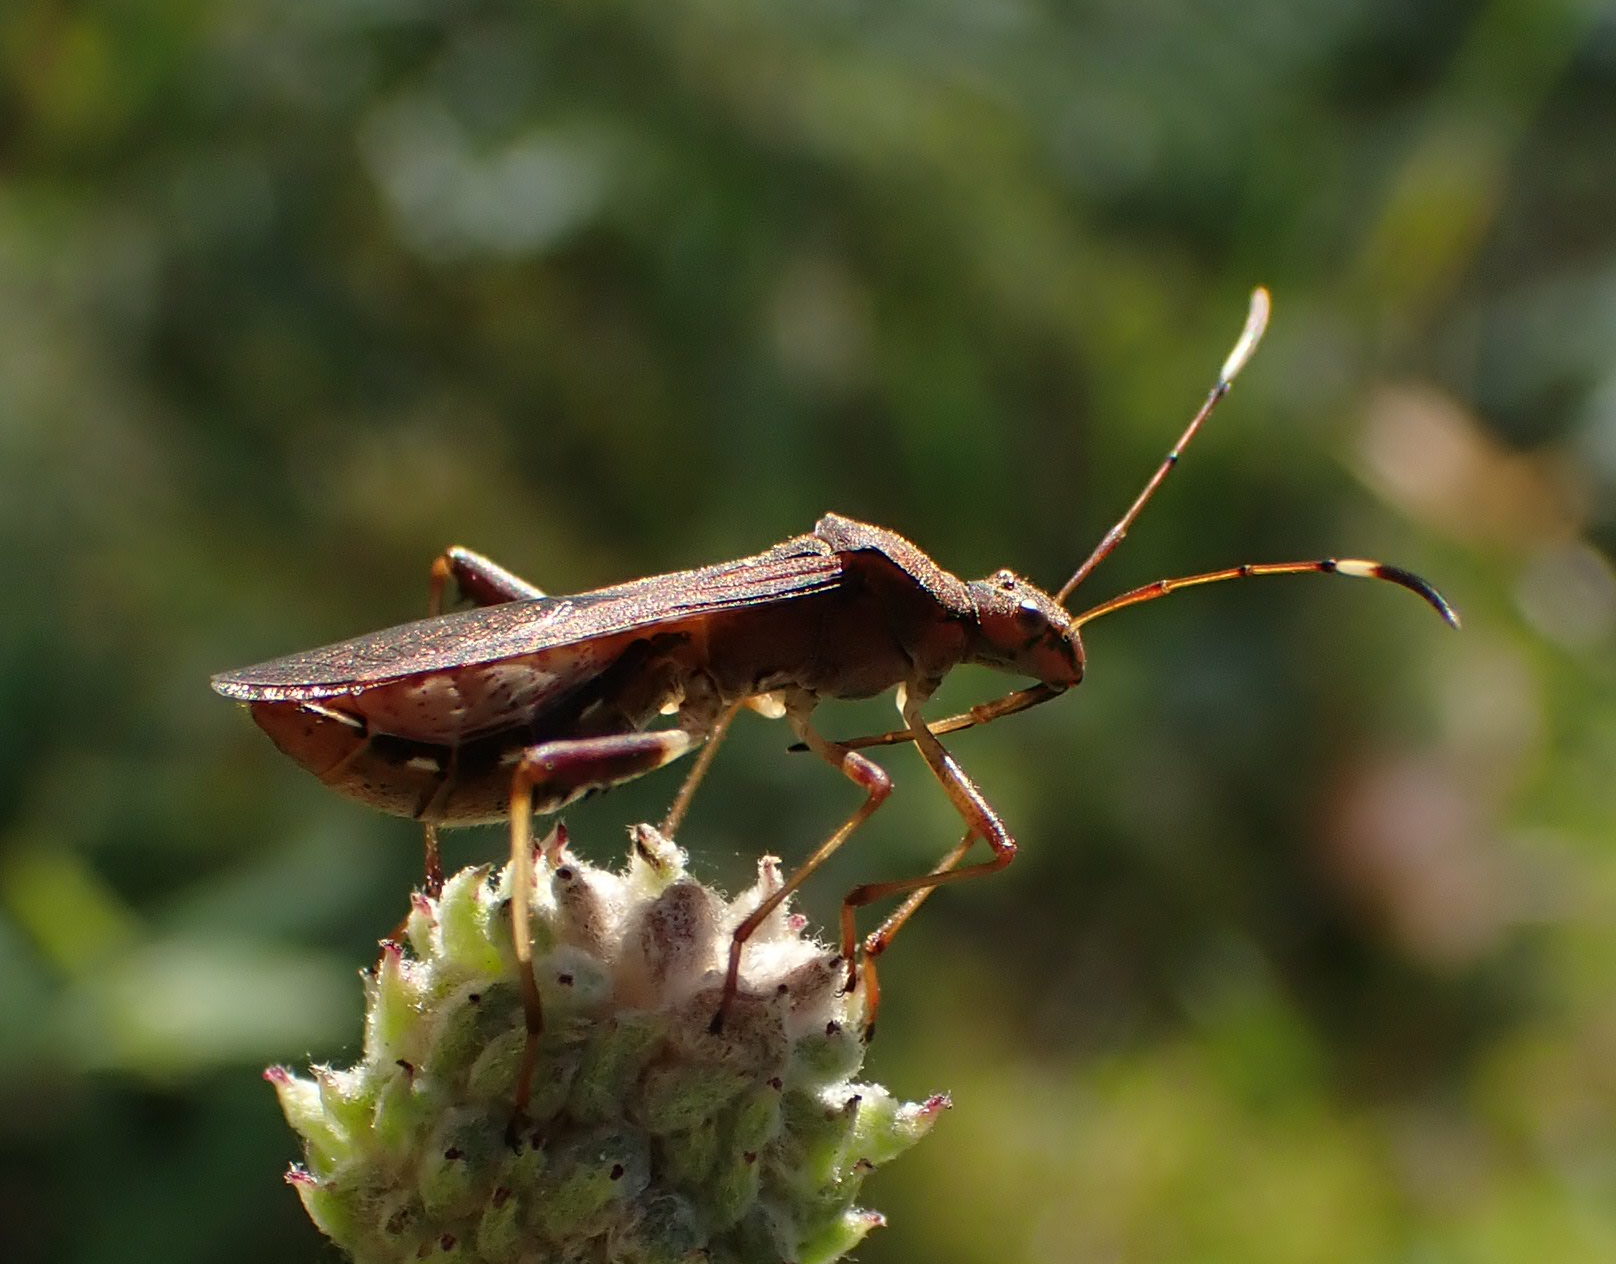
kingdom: Animalia
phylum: Arthropoda
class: Insecta
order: Hemiptera
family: Alydidae
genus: Megalotomus
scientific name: Megalotomus quinquespinosus
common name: Lupine bug
